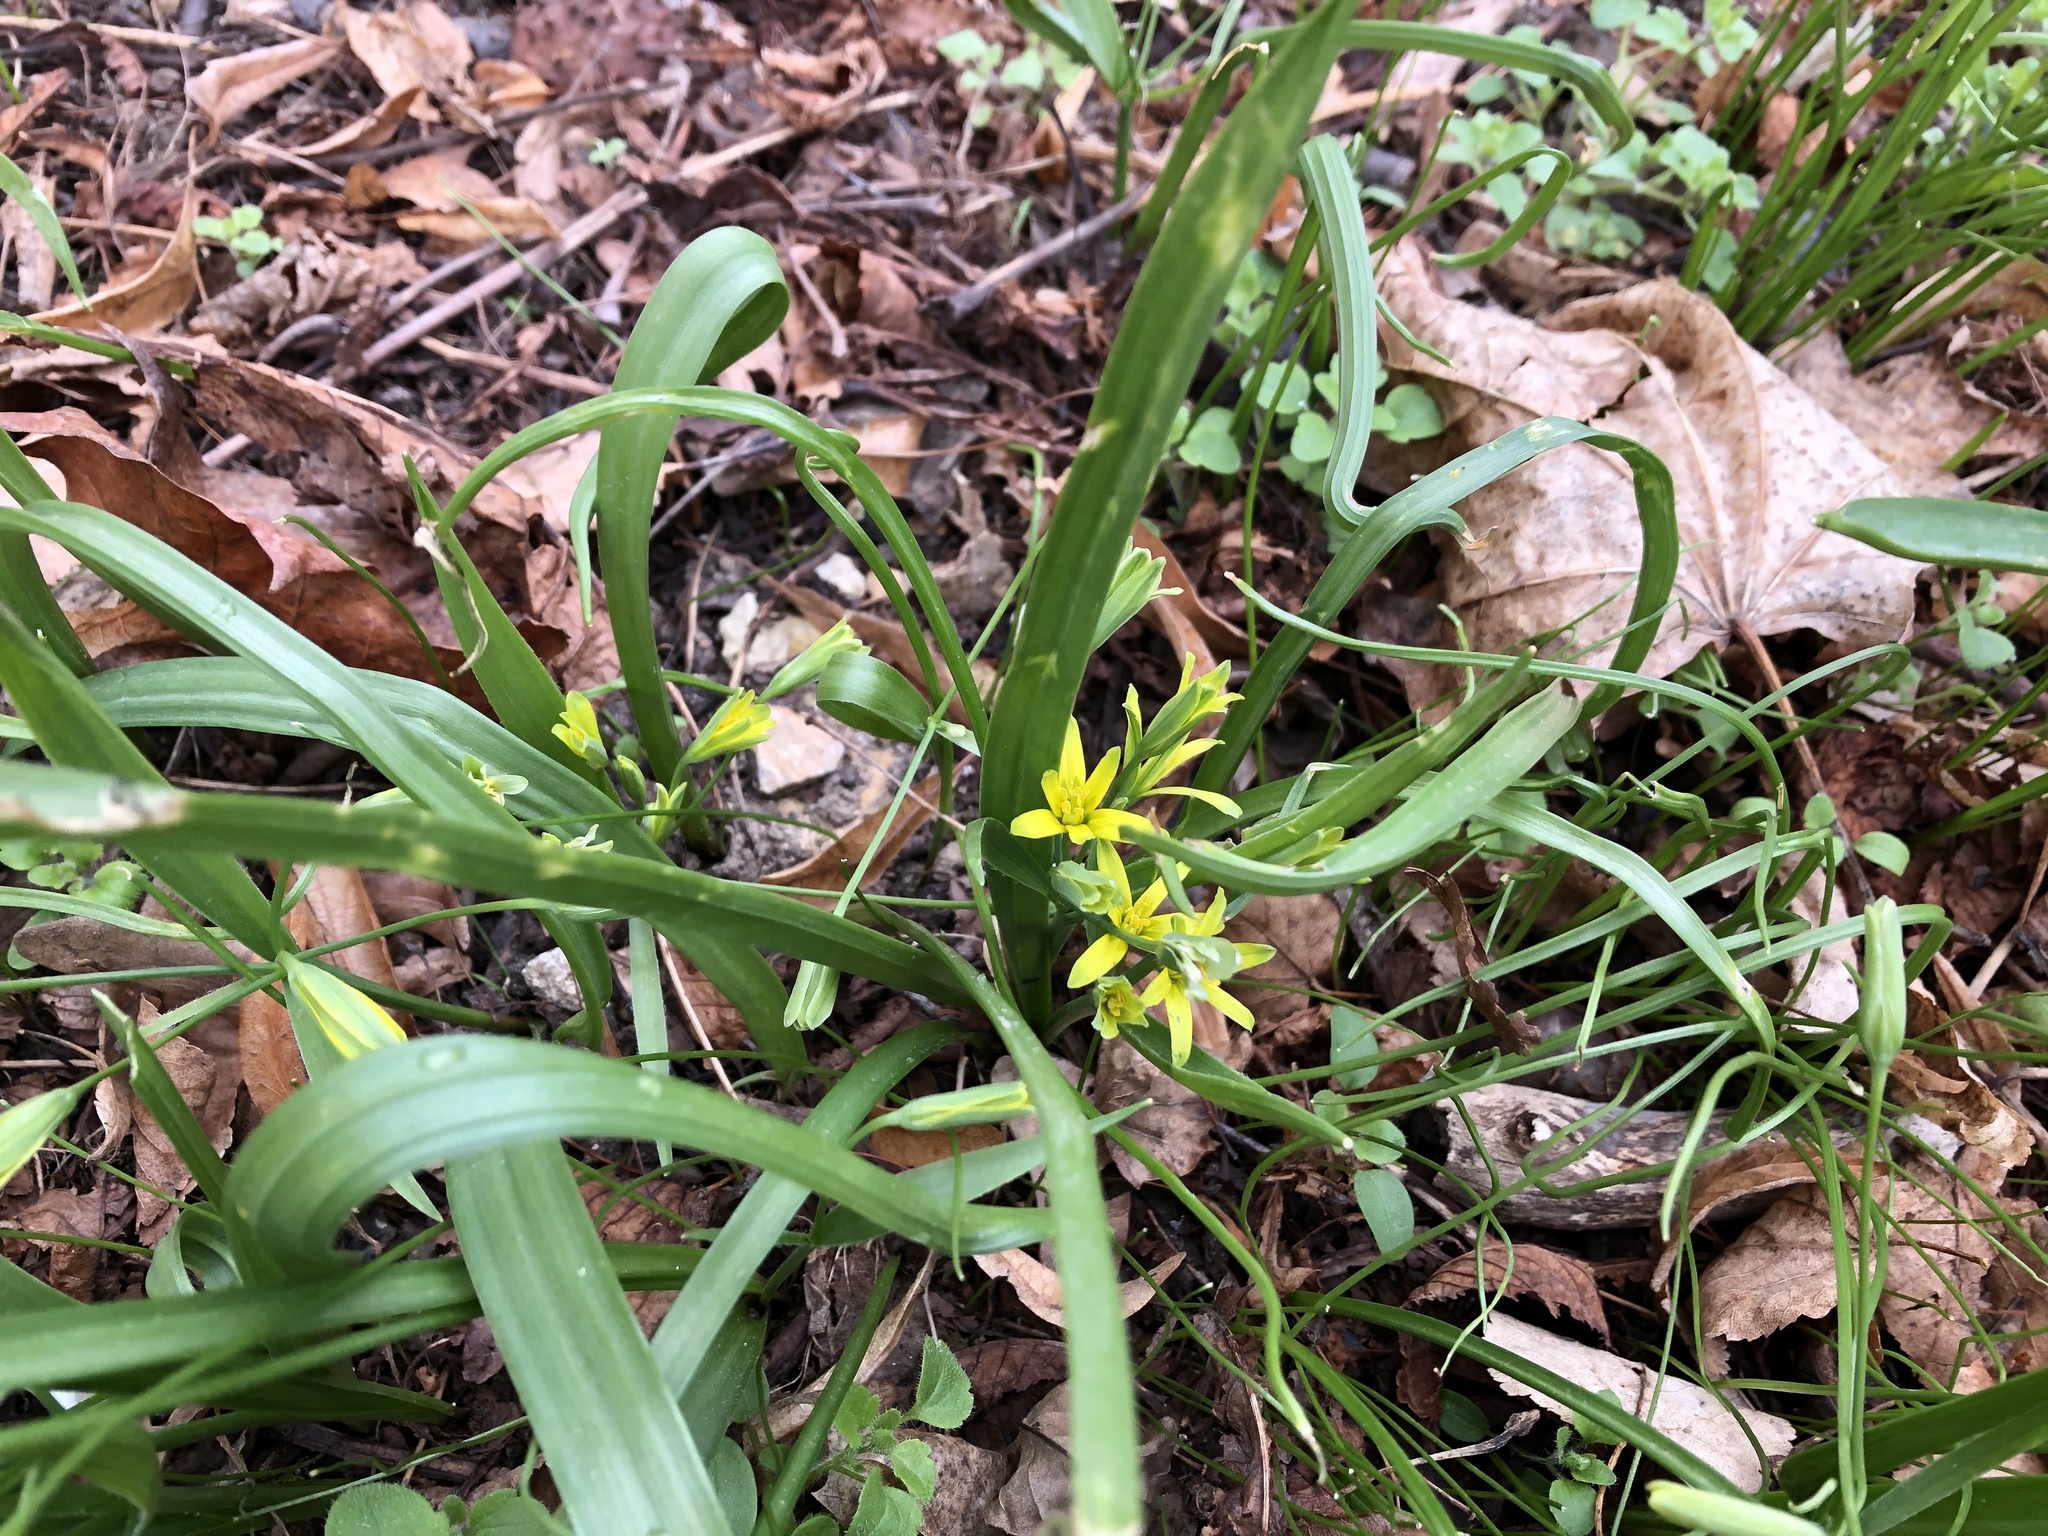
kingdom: Plantae
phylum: Tracheophyta
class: Liliopsida
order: Liliales
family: Liliaceae
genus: Gagea
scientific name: Gagea lutea
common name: Yellow star-of-bethlehem
